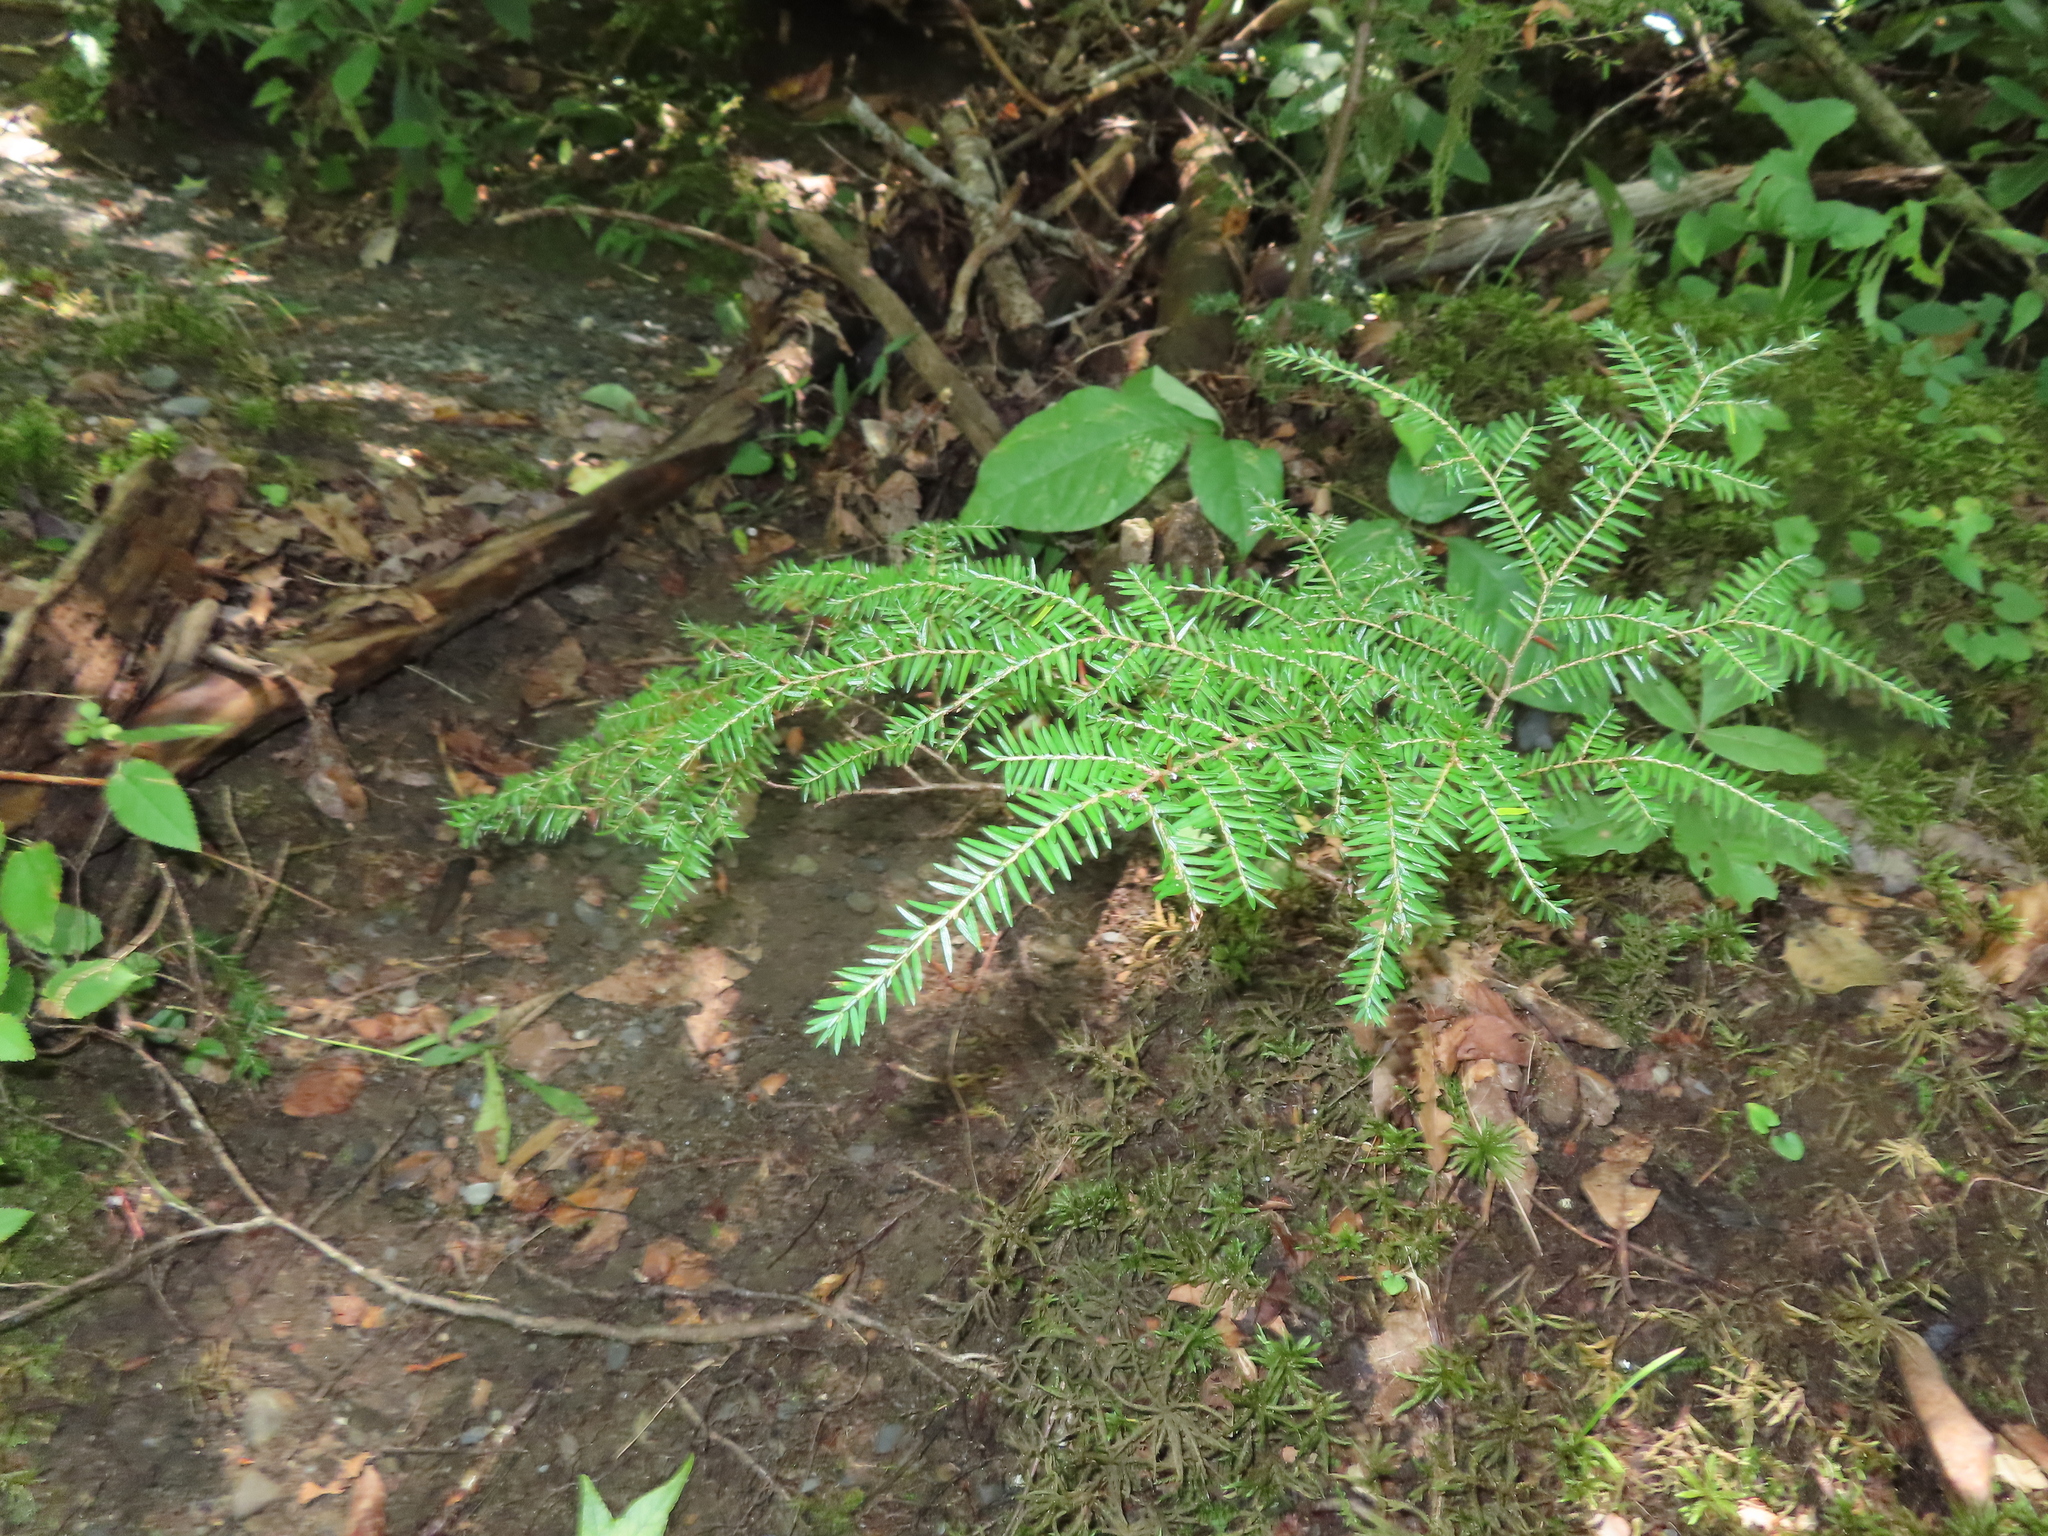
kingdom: Plantae
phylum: Tracheophyta
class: Pinopsida
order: Pinales
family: Pinaceae
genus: Tsuga
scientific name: Tsuga canadensis
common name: Eastern hemlock
